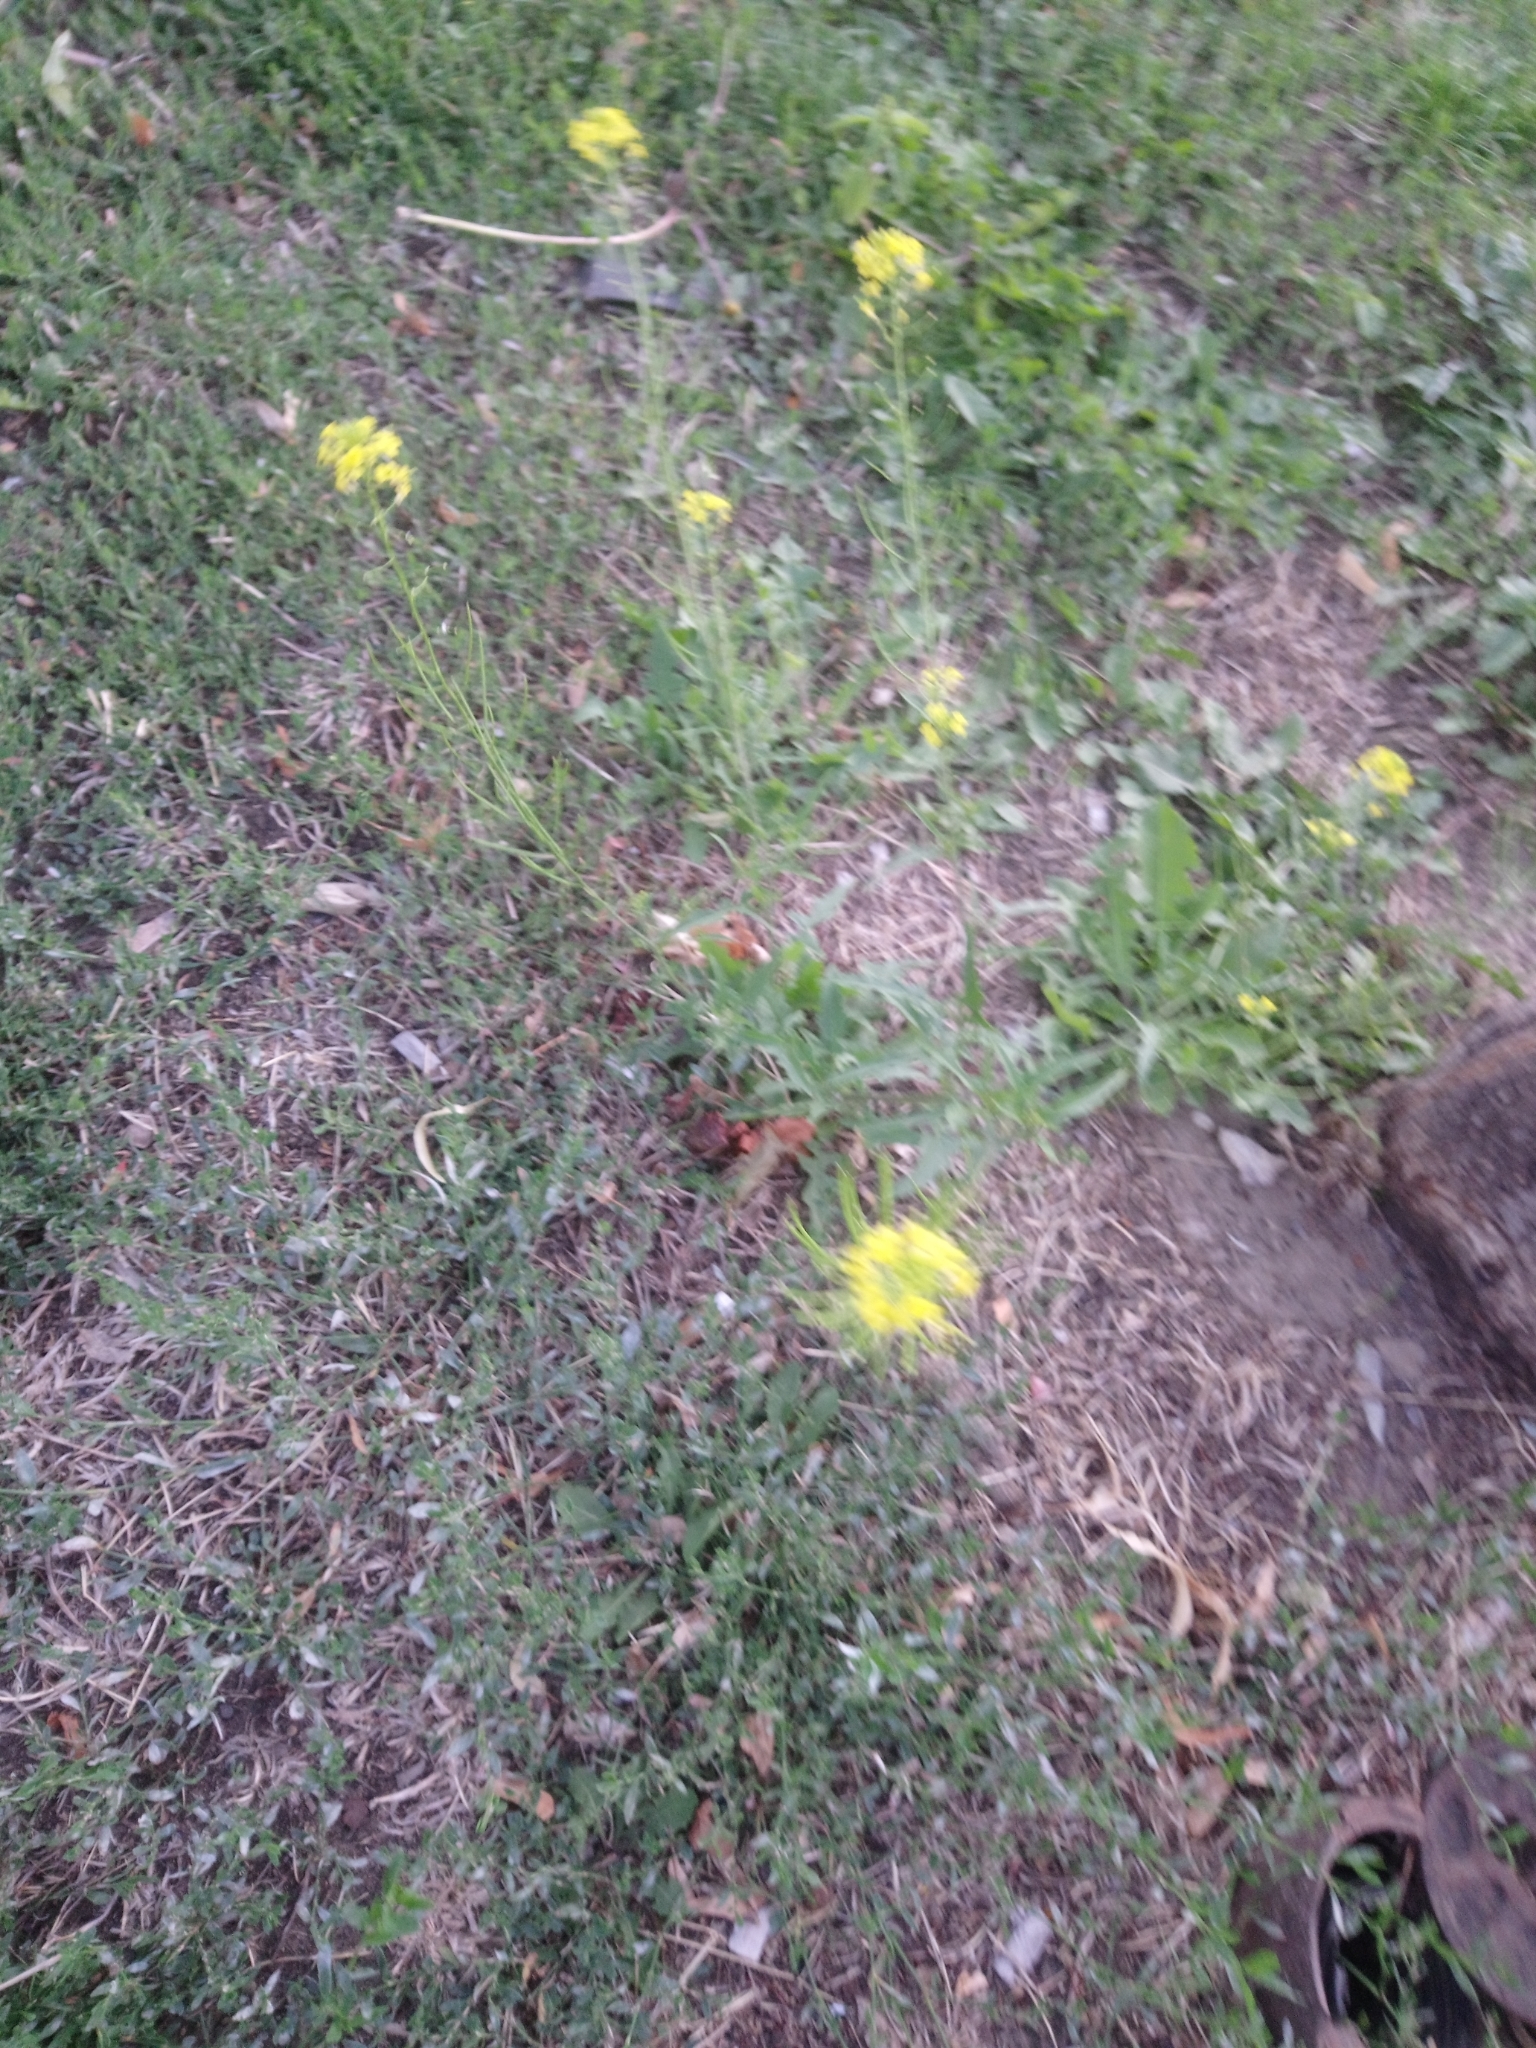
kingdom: Plantae
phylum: Tracheophyta
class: Magnoliopsida
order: Brassicales
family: Brassicaceae
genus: Sisymbrium
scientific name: Sisymbrium loeselii
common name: False london-rocket
